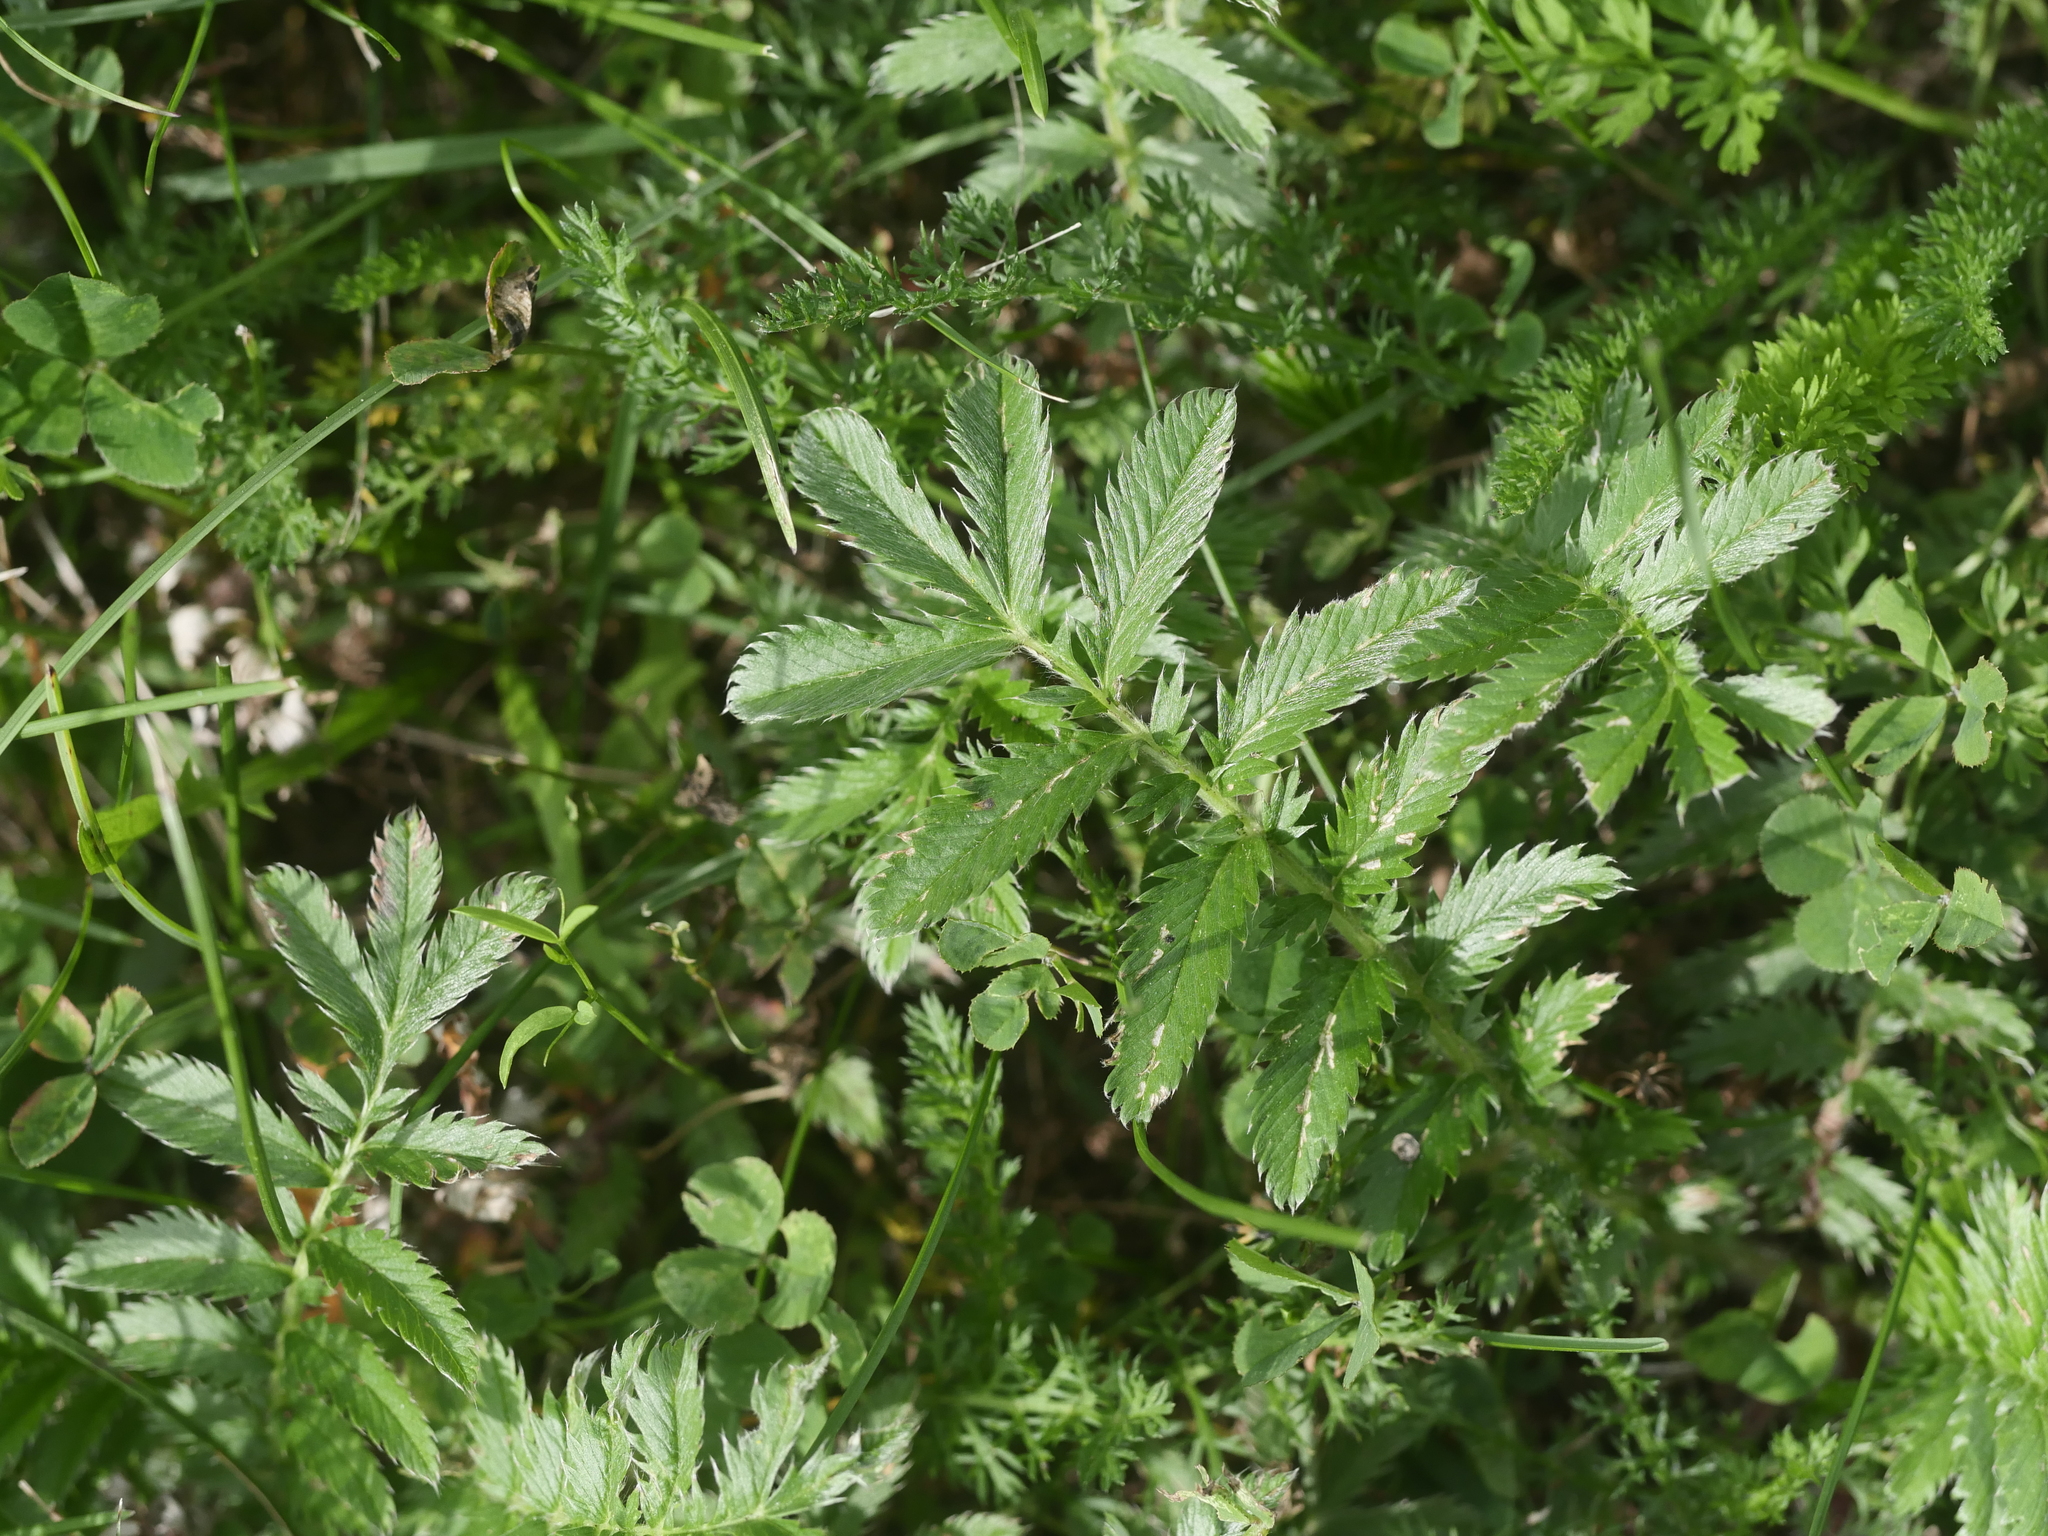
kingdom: Plantae
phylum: Tracheophyta
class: Magnoliopsida
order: Rosales
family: Rosaceae
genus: Argentina
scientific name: Argentina anserina
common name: Common silverweed
